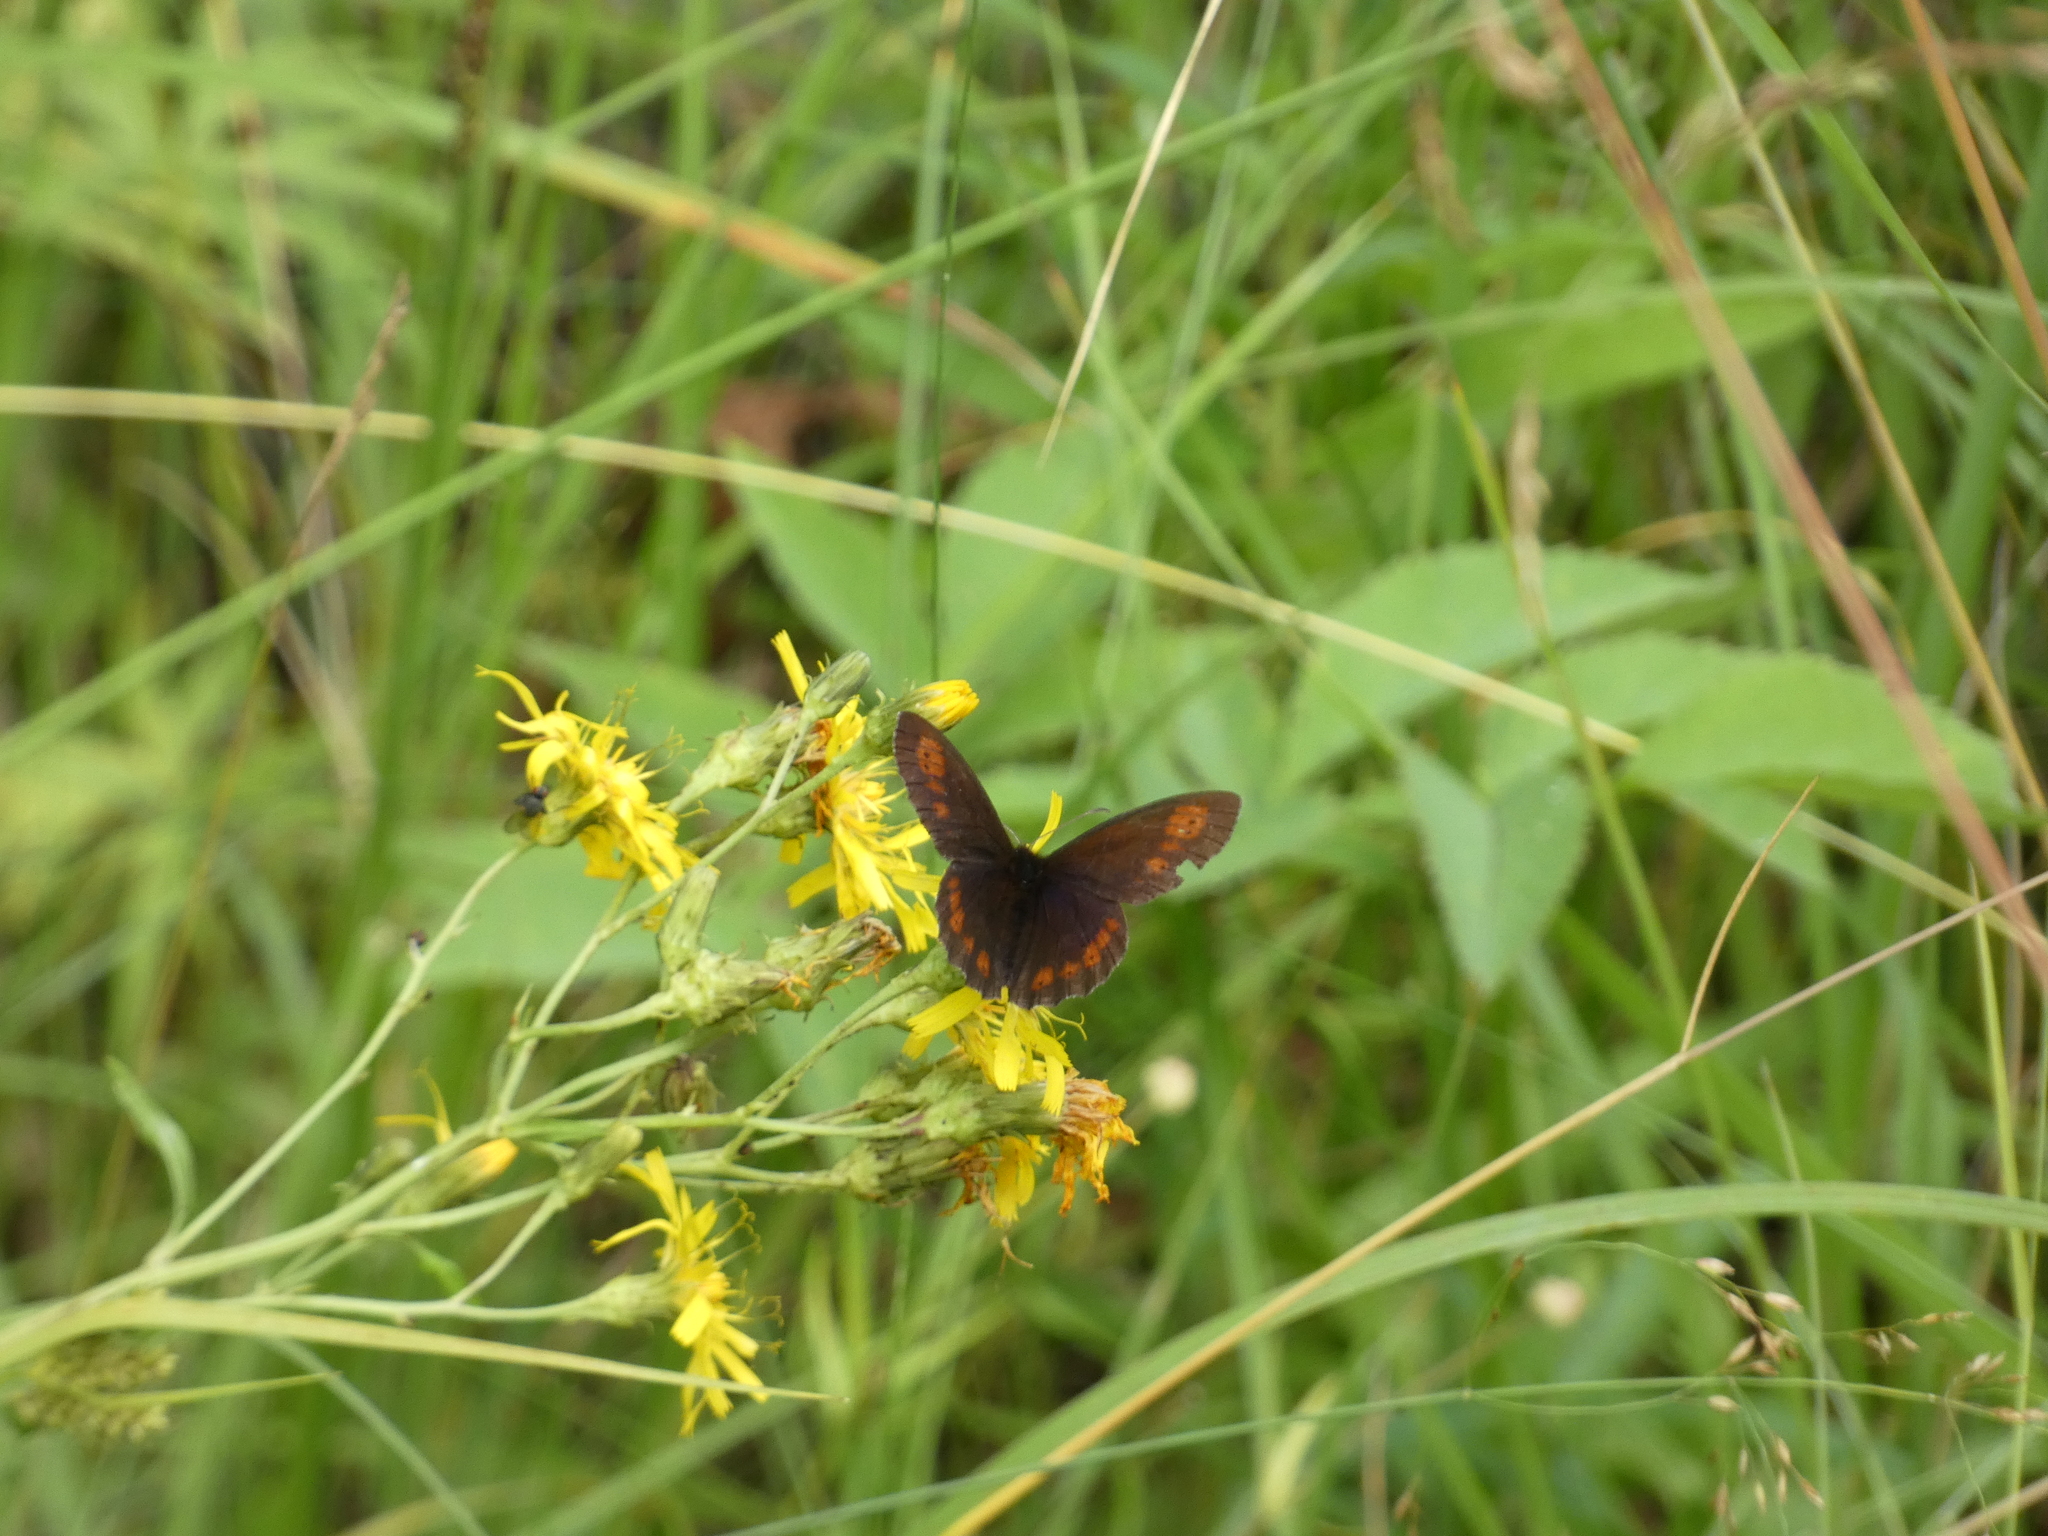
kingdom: Animalia
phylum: Arthropoda
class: Insecta
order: Lepidoptera
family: Nymphalidae
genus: Erebia
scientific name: Erebia euryale
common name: Large ringlet
